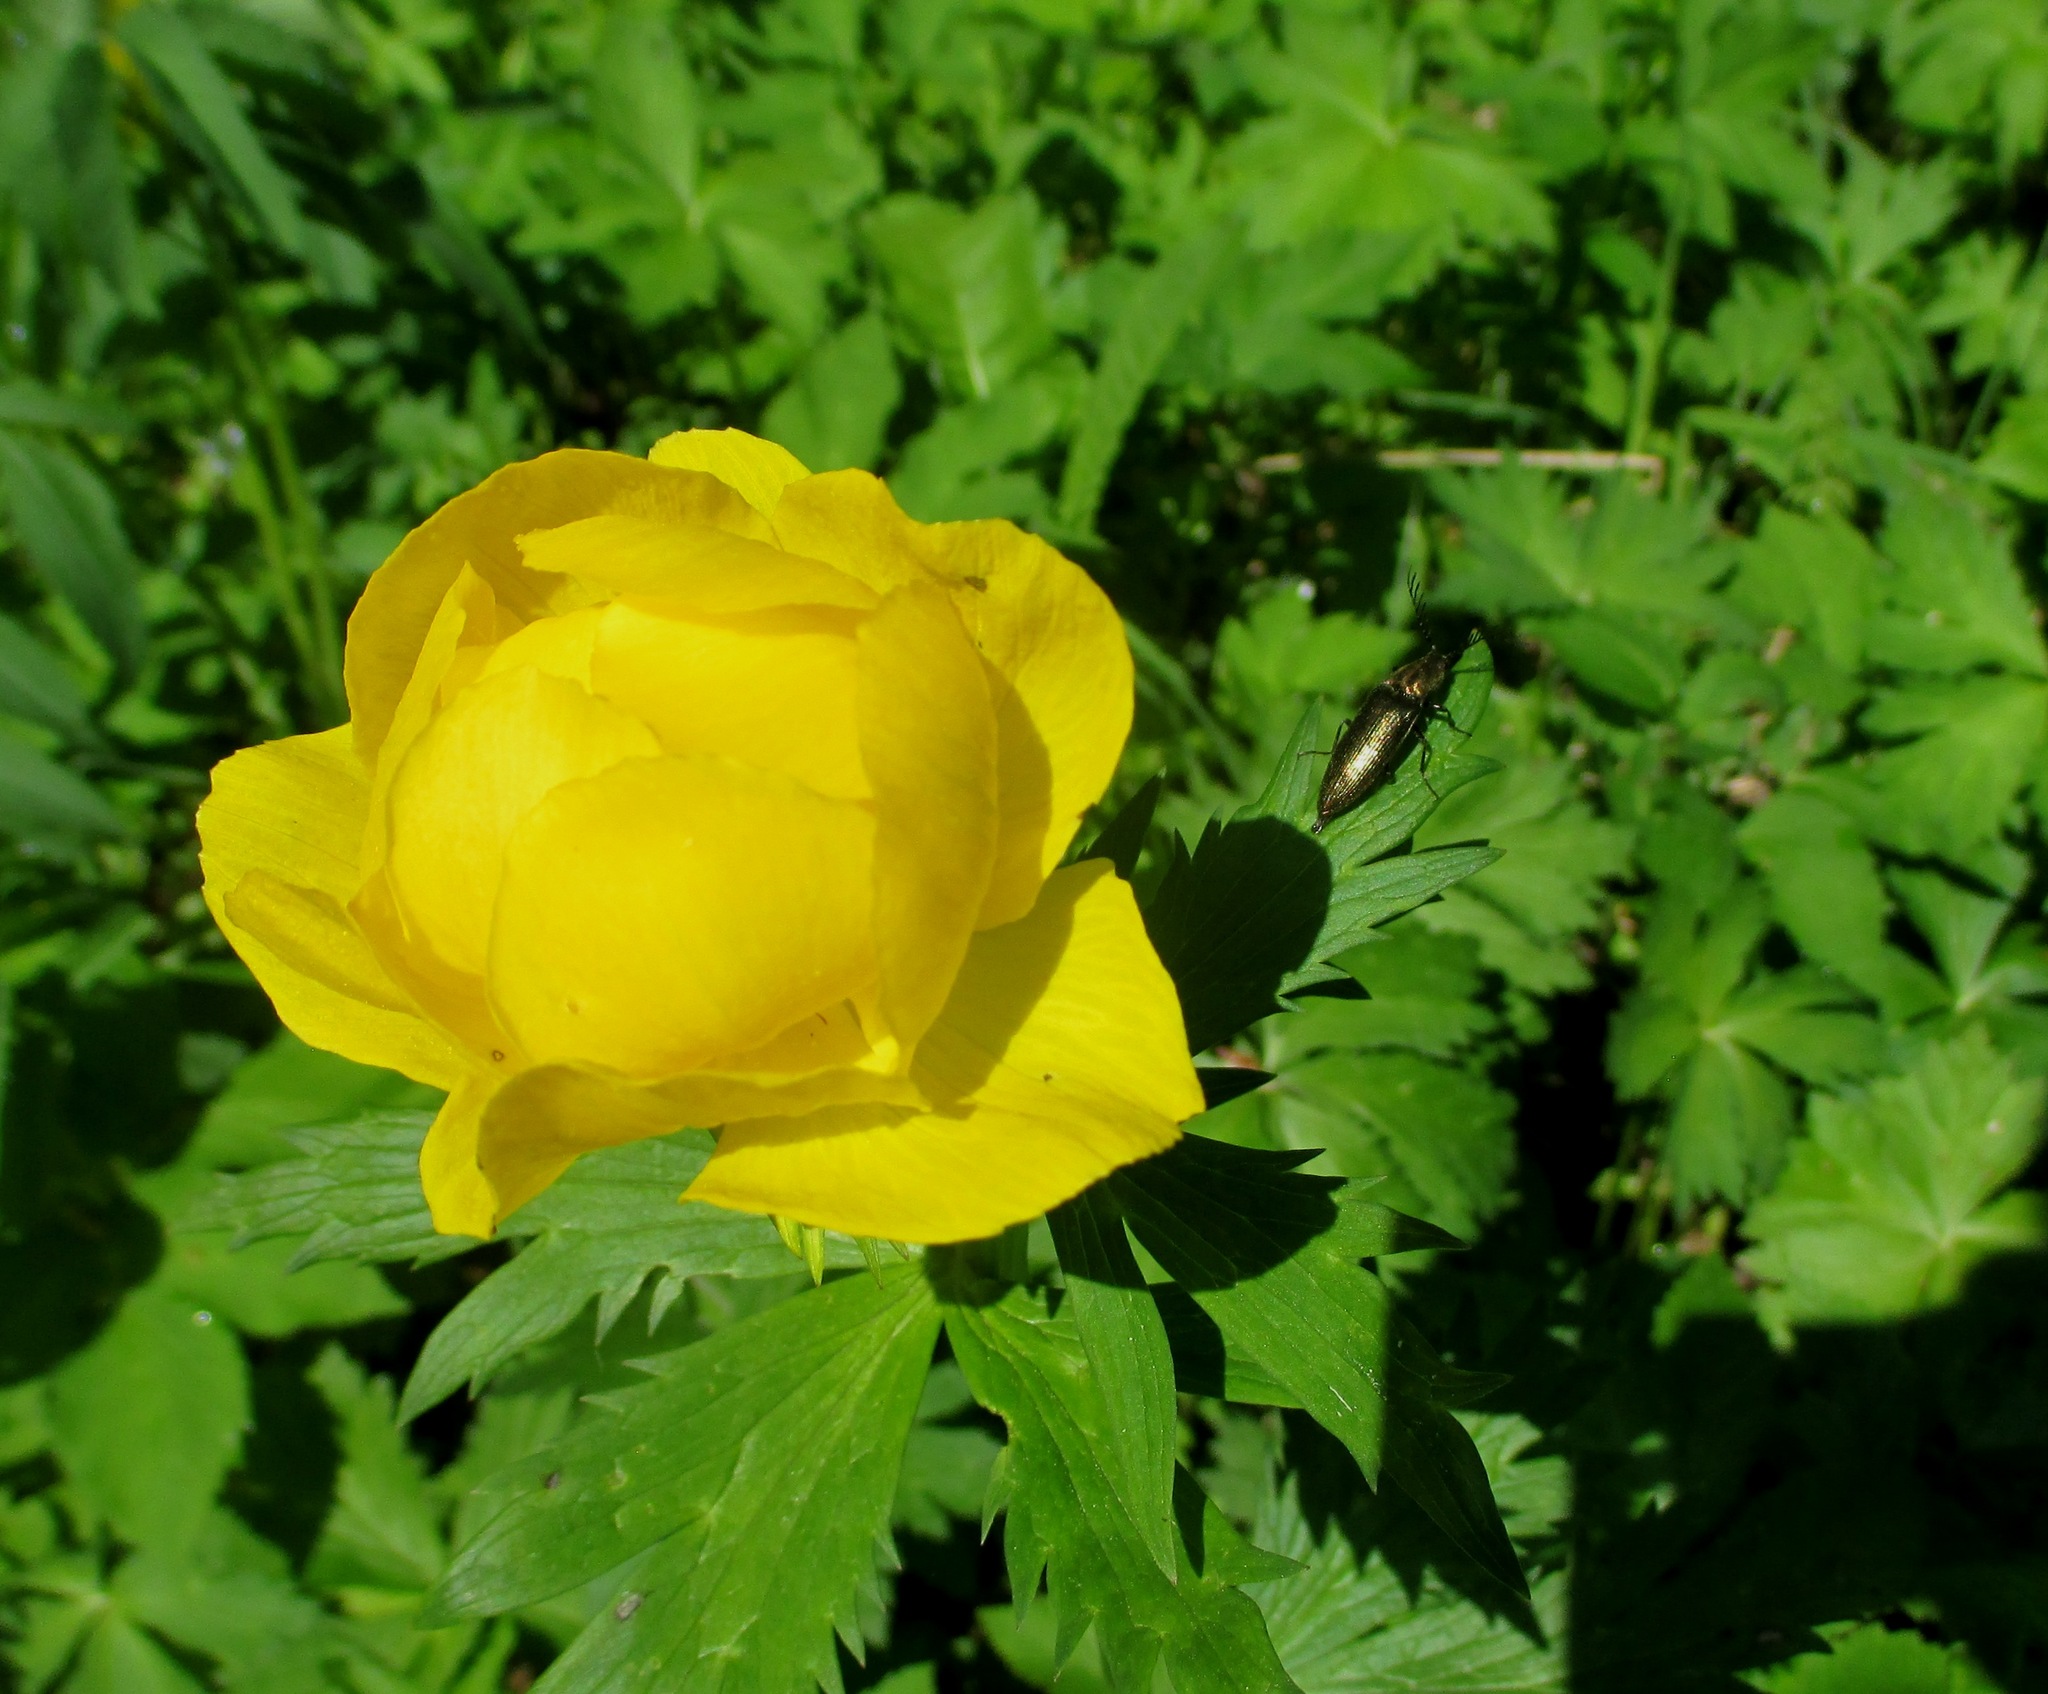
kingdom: Plantae
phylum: Tracheophyta
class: Magnoliopsida
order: Ranunculales
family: Ranunculaceae
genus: Trollius
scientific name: Trollius europaeus
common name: European globeflower
